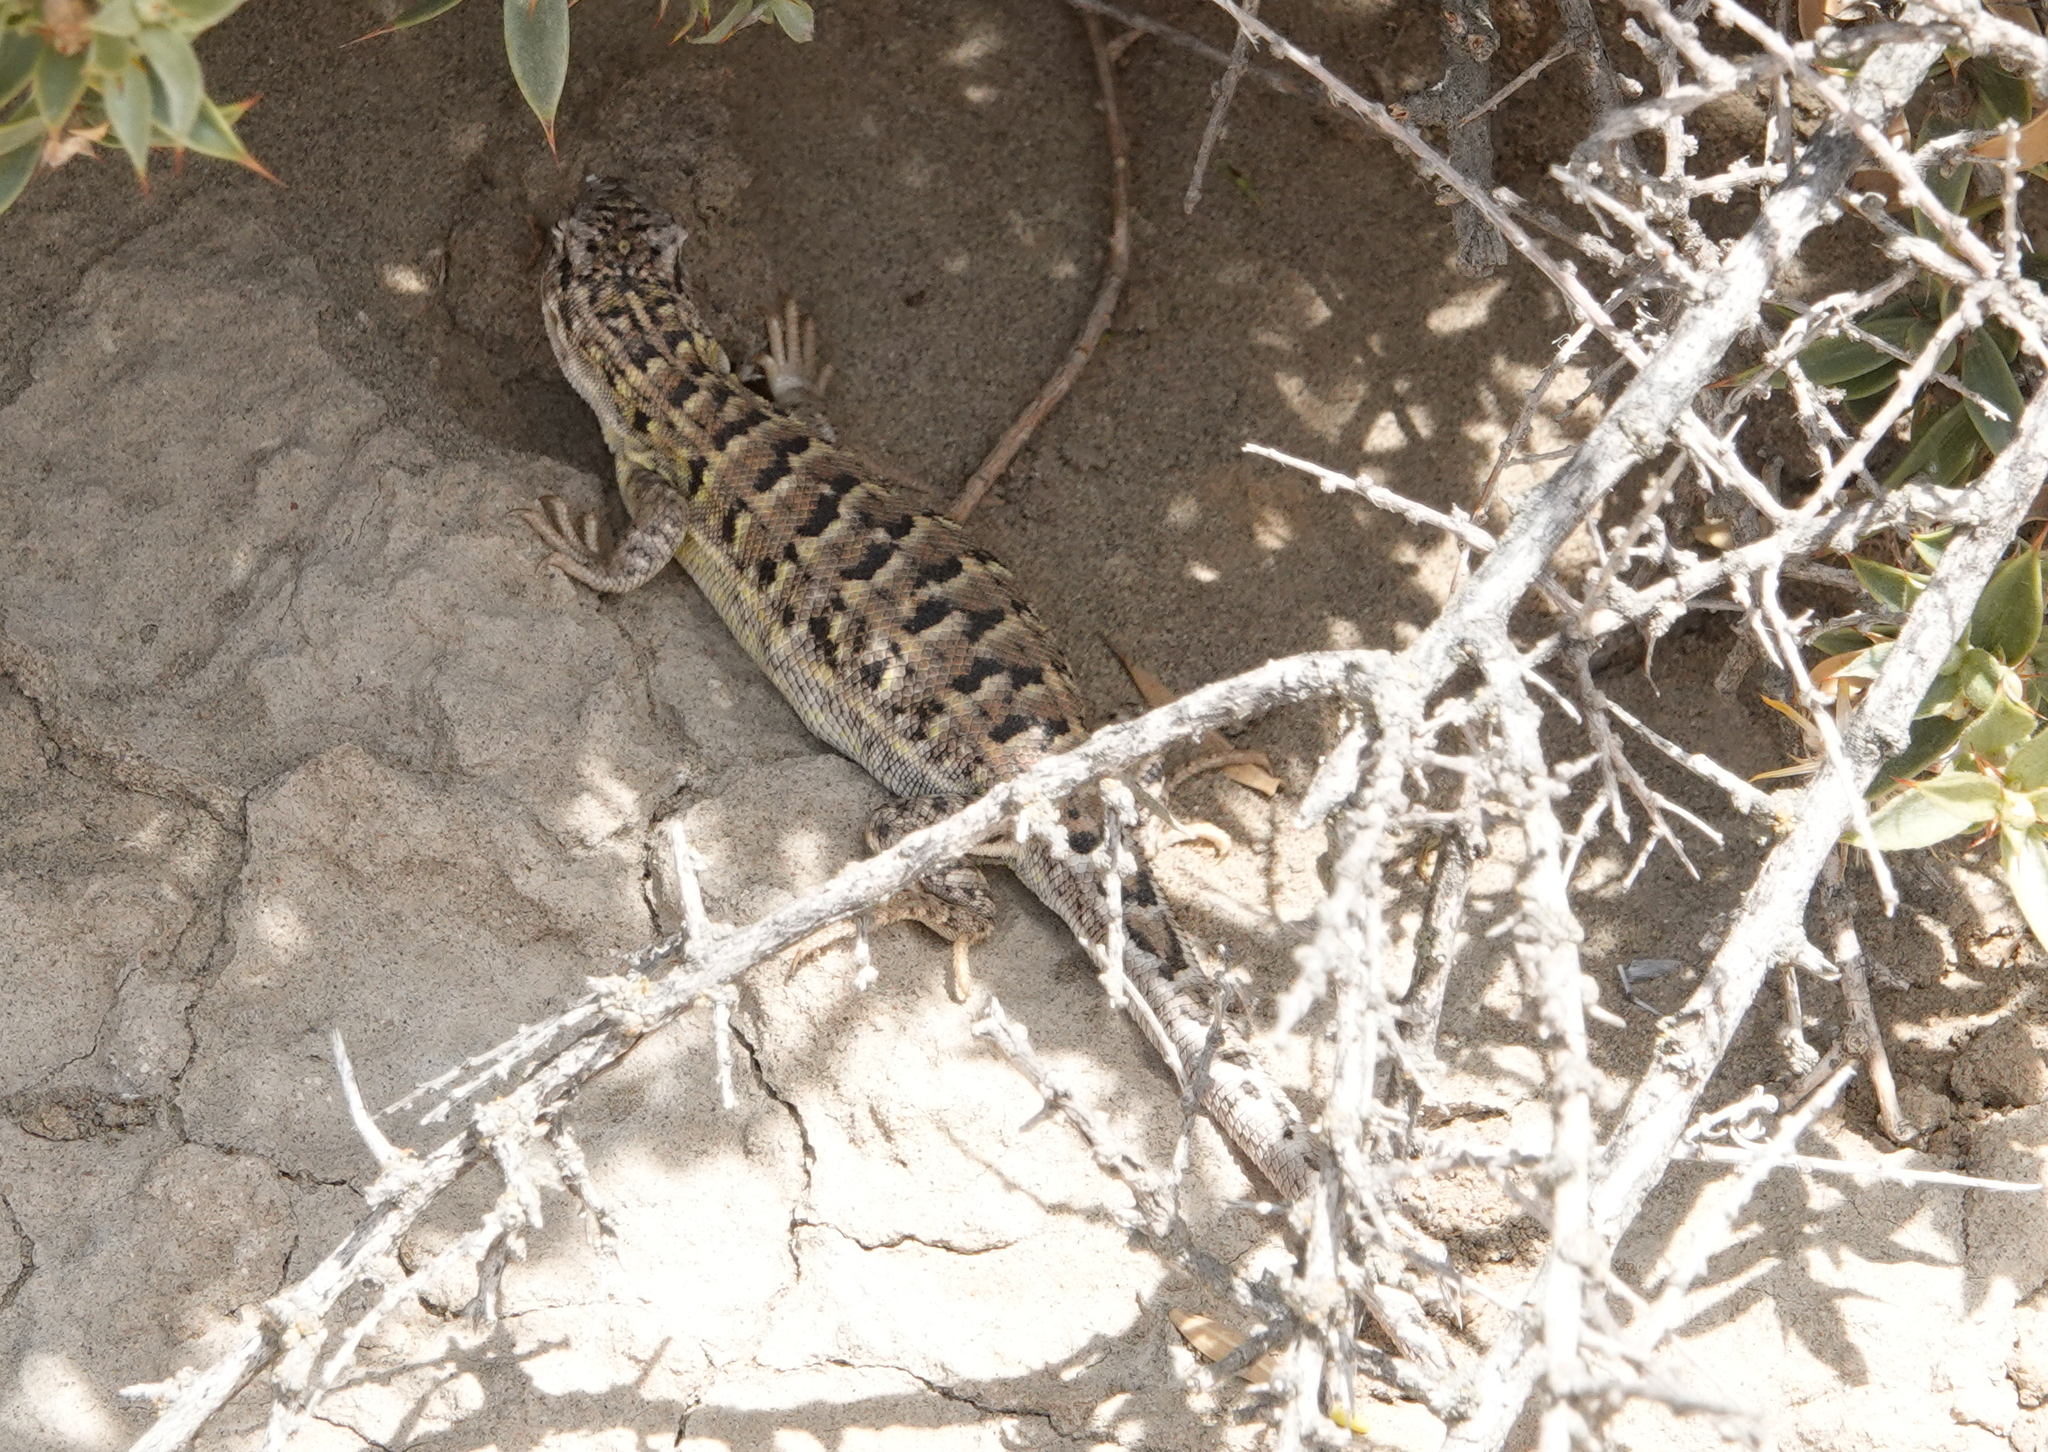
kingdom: Animalia
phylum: Chordata
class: Squamata
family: Liolaemidae
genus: Liolaemus
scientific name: Liolaemus melanops
